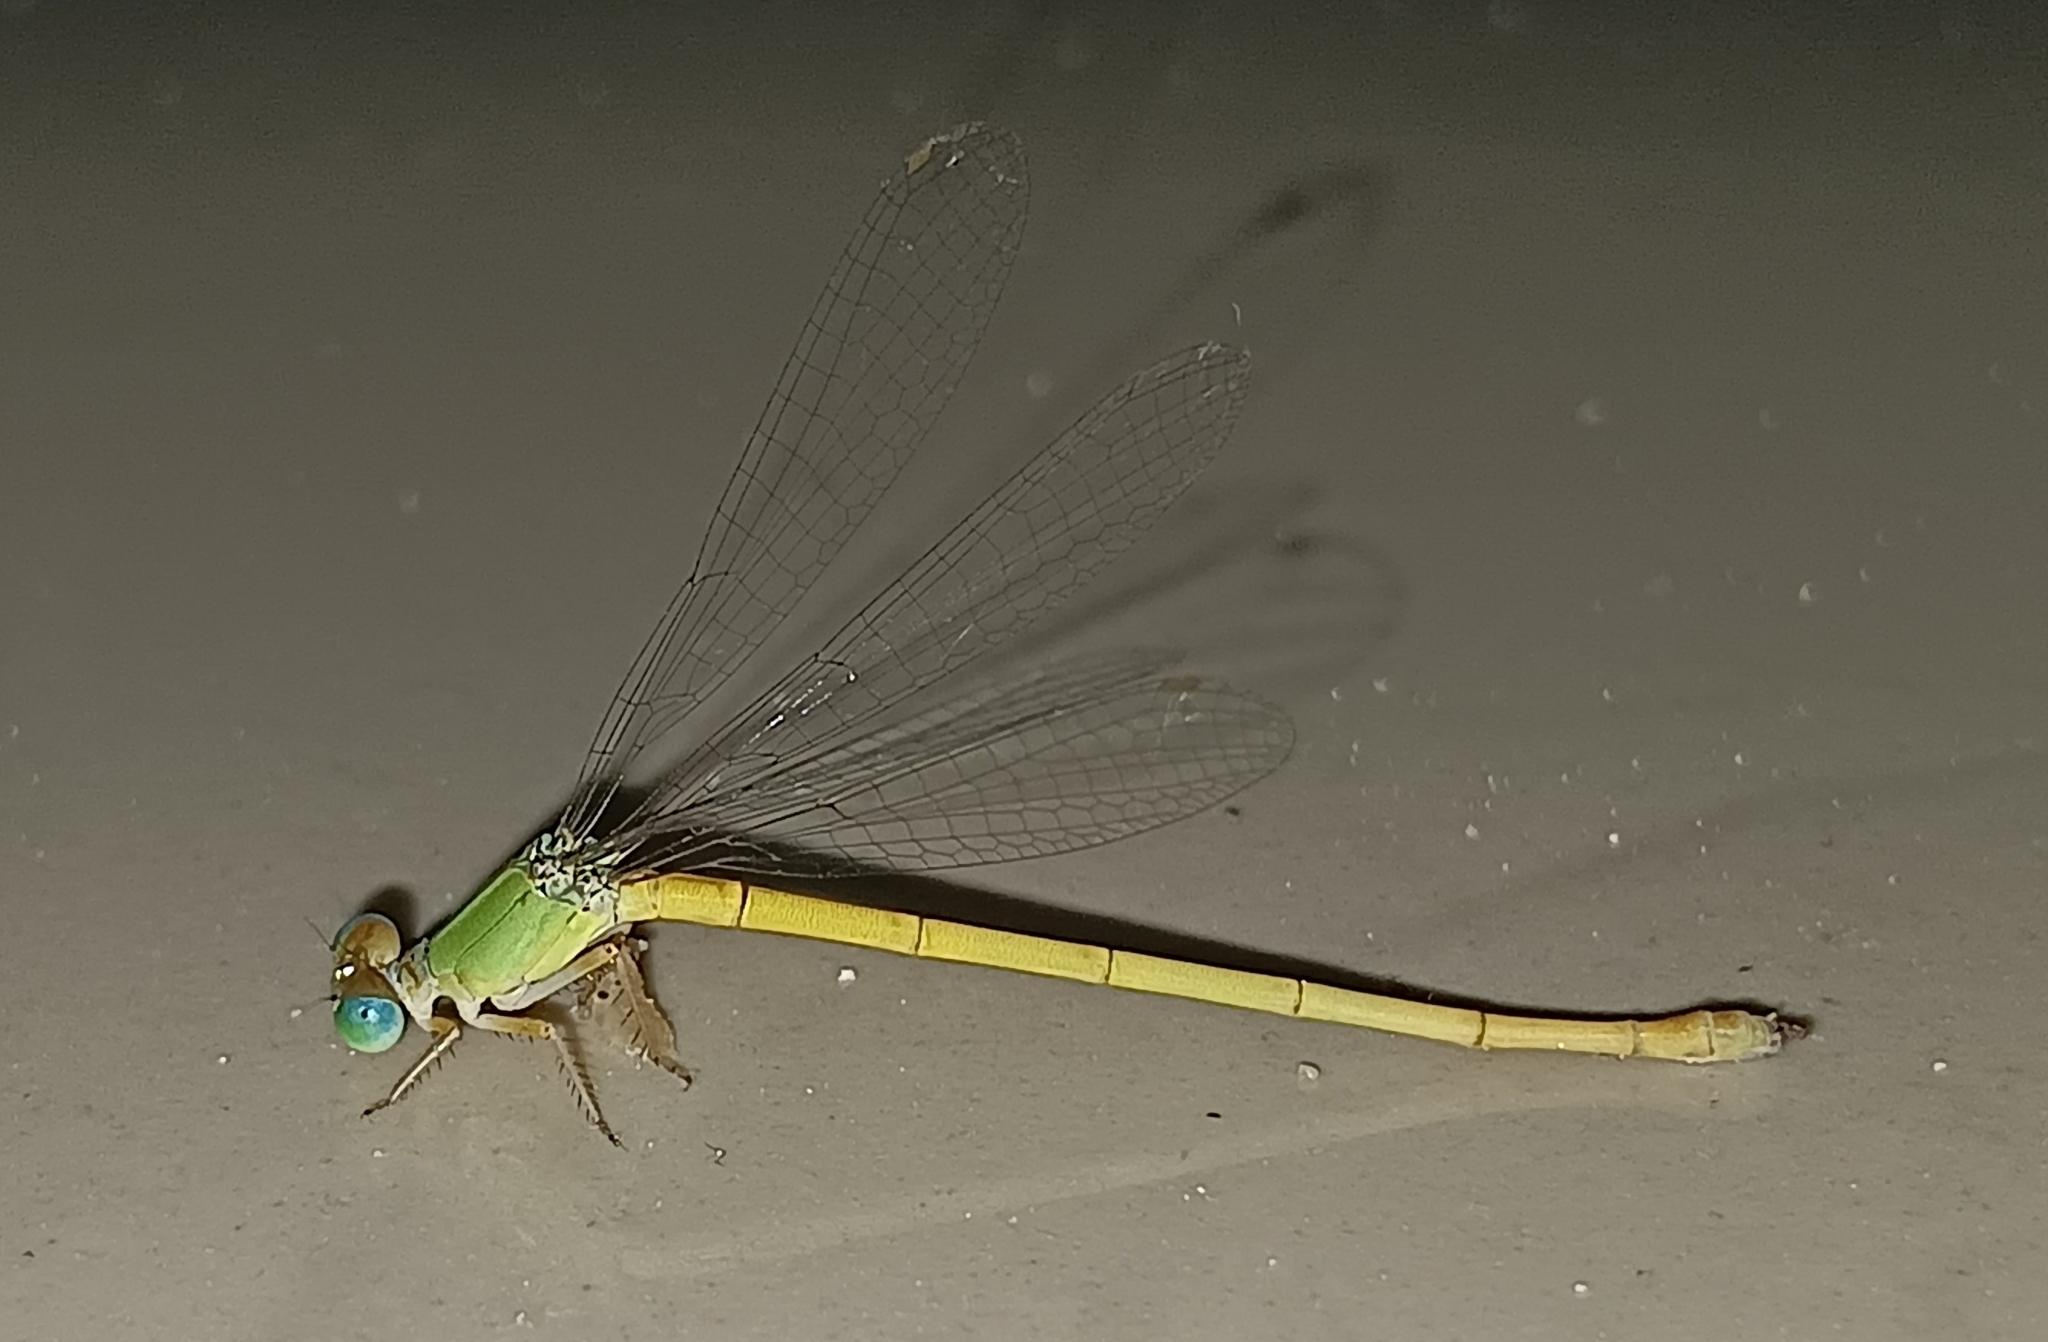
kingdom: Animalia
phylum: Arthropoda
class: Insecta
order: Odonata
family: Coenagrionidae
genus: Ceriagrion
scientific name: Ceriagrion coromandelianum
